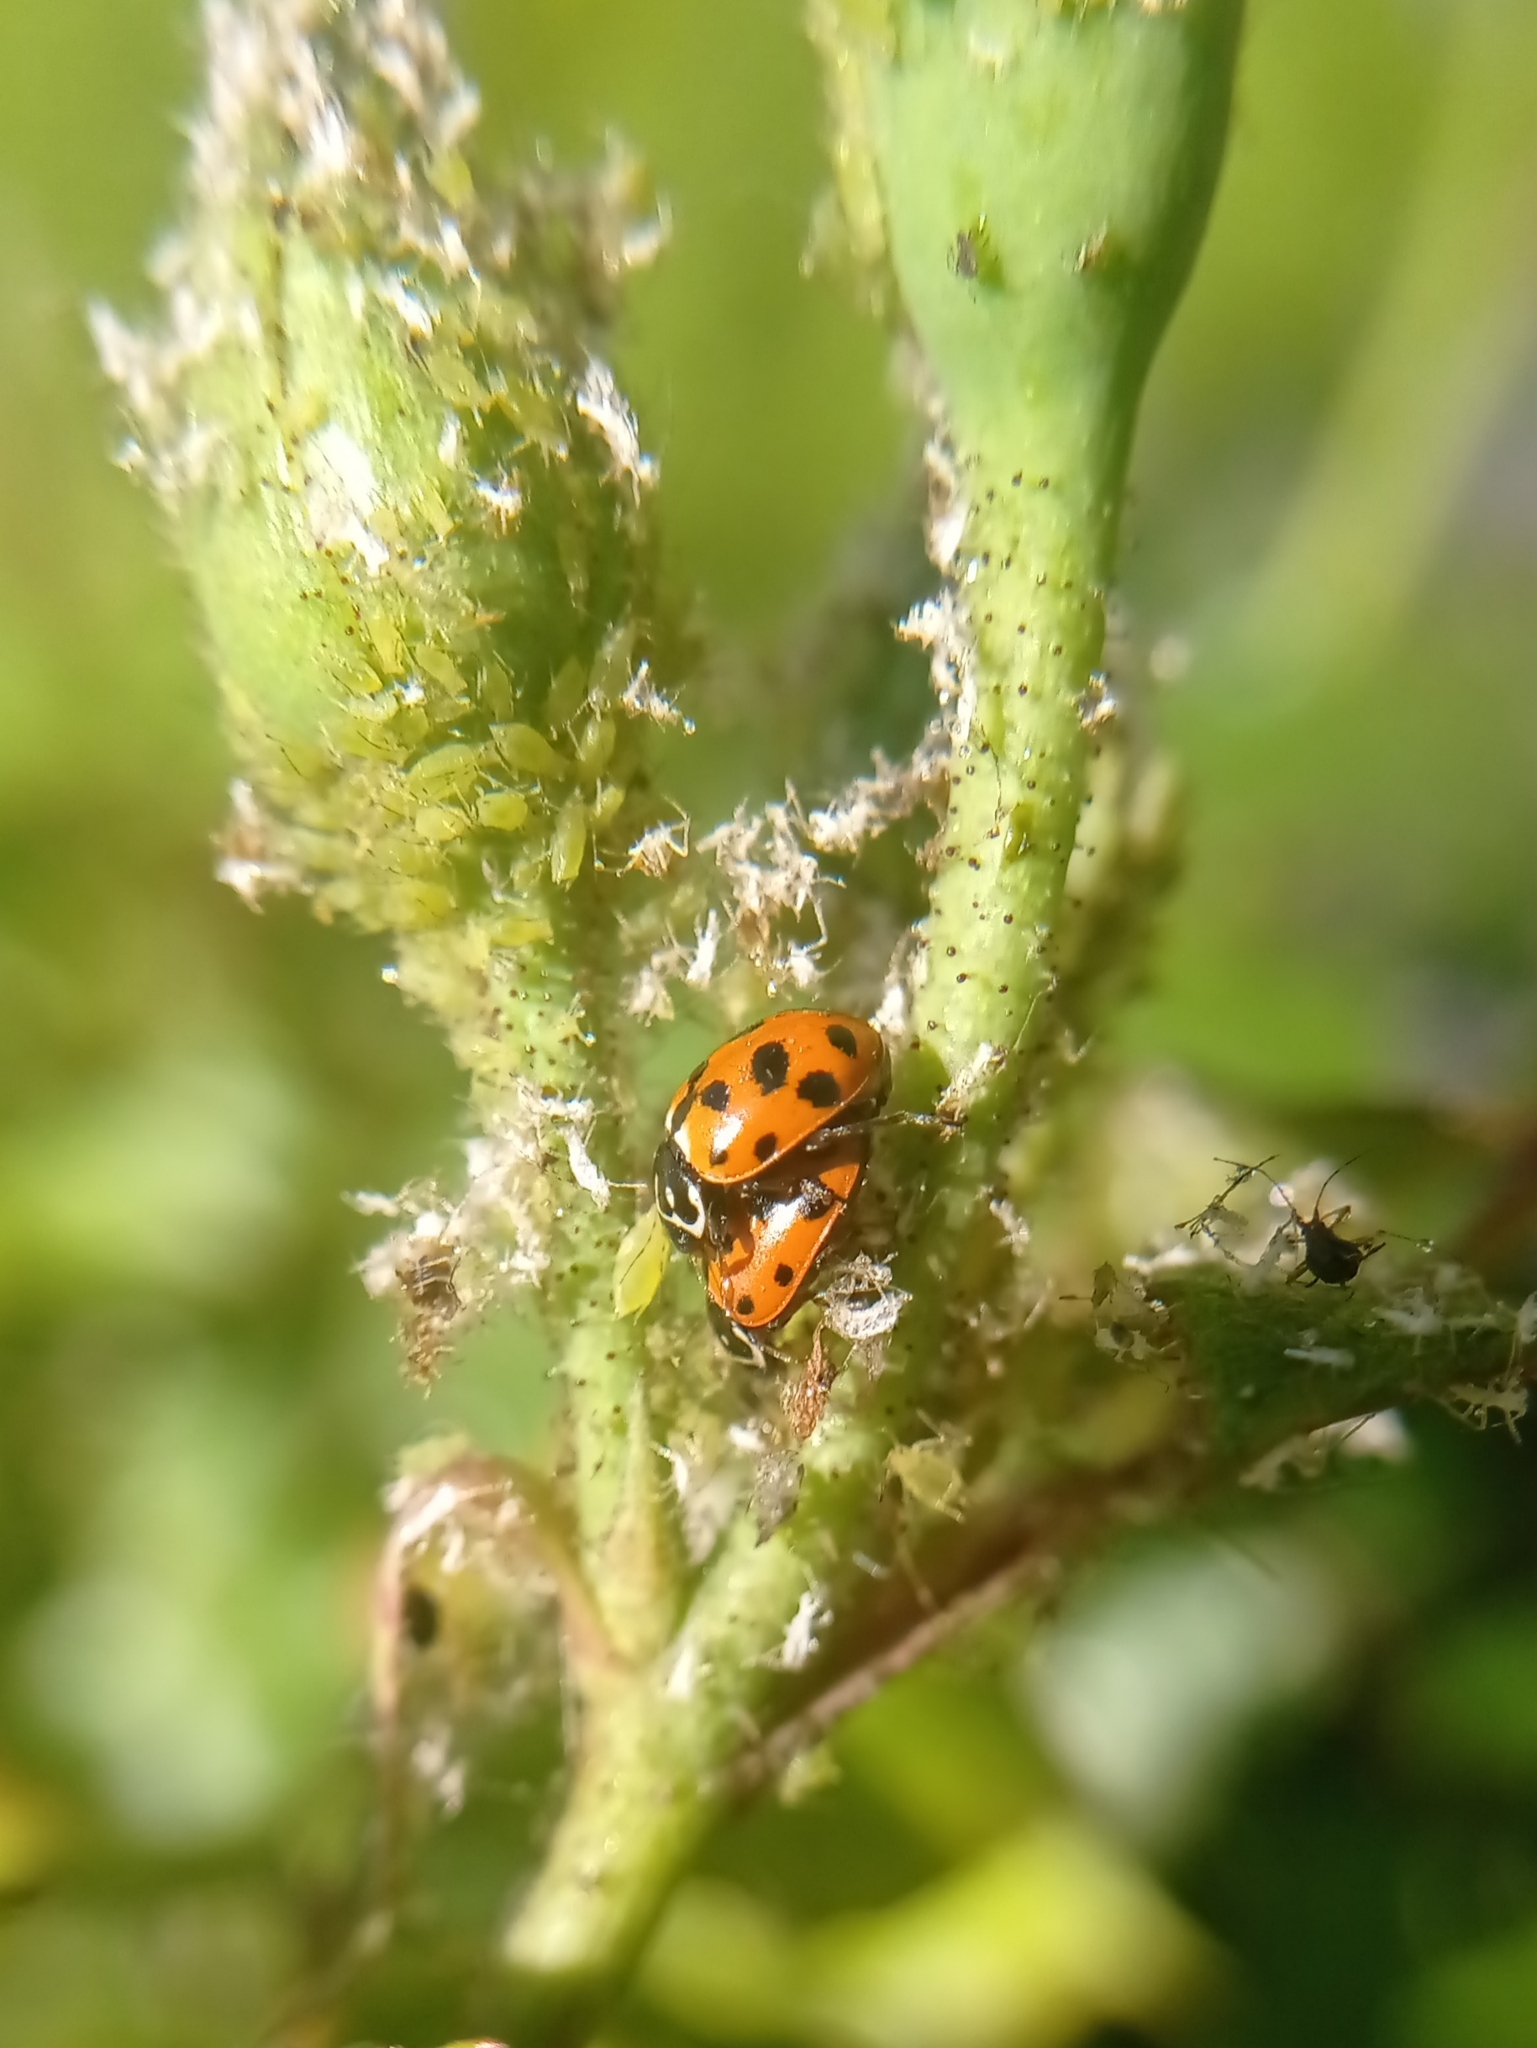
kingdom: Animalia
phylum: Arthropoda
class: Insecta
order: Coleoptera
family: Coccinellidae
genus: Hippodamia
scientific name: Hippodamia variegata
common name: Ladybird beetle
